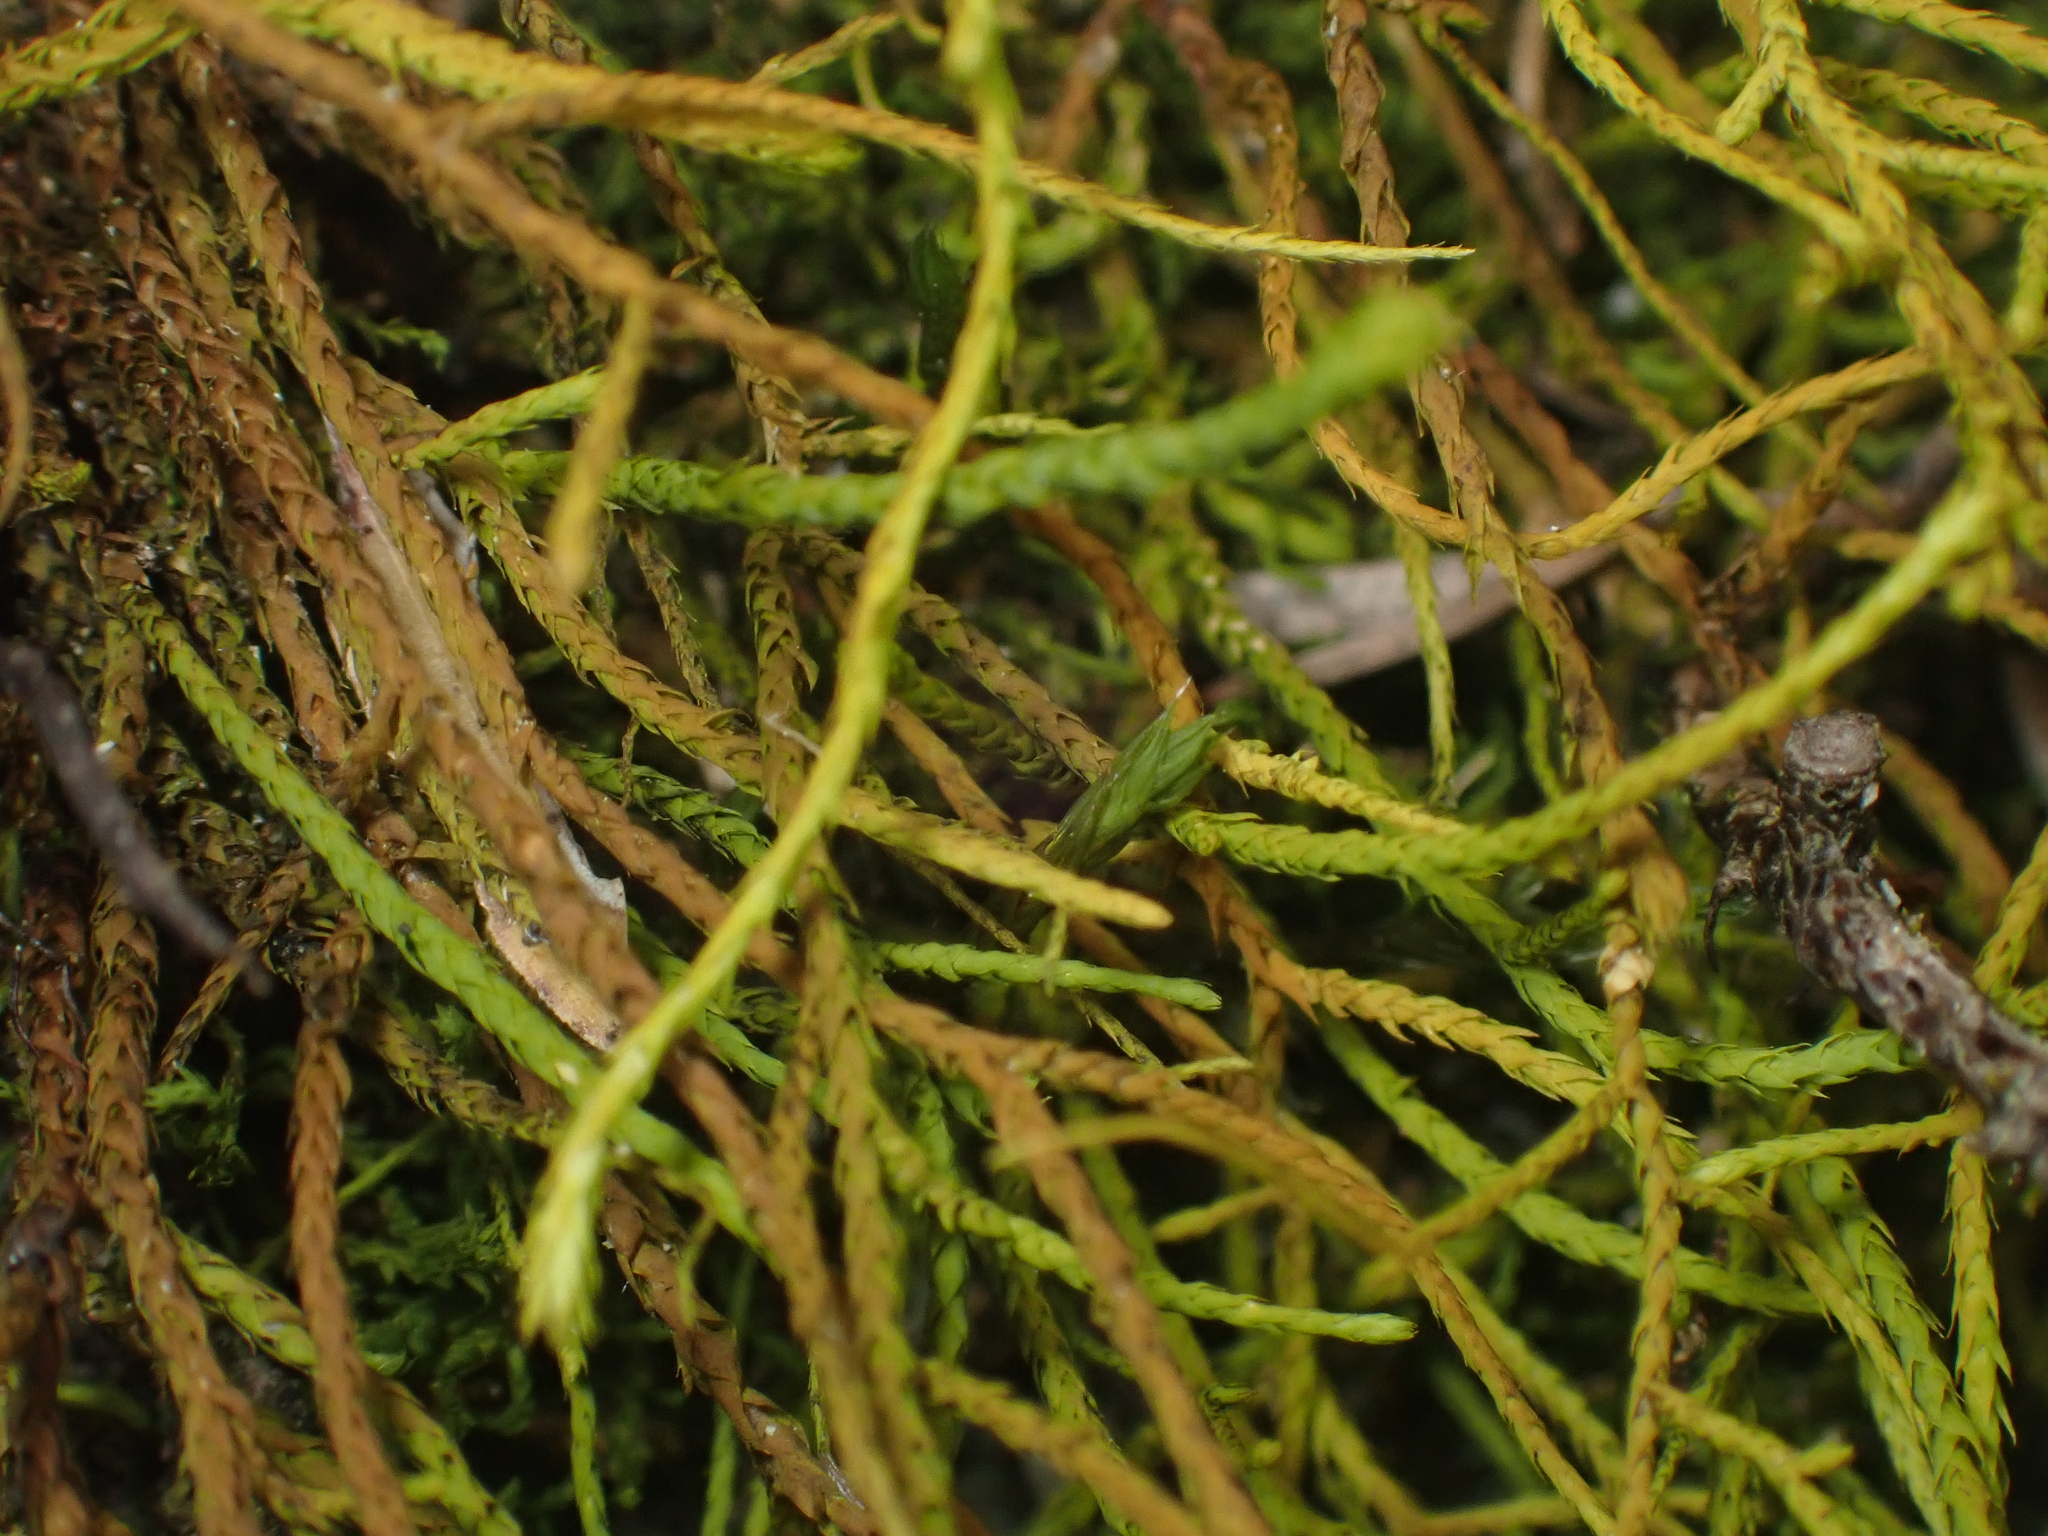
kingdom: Plantae
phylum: Bryophyta
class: Bryopsida
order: Pottiales
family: Pottiaceae
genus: Triquetrella
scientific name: Triquetrella papillata
